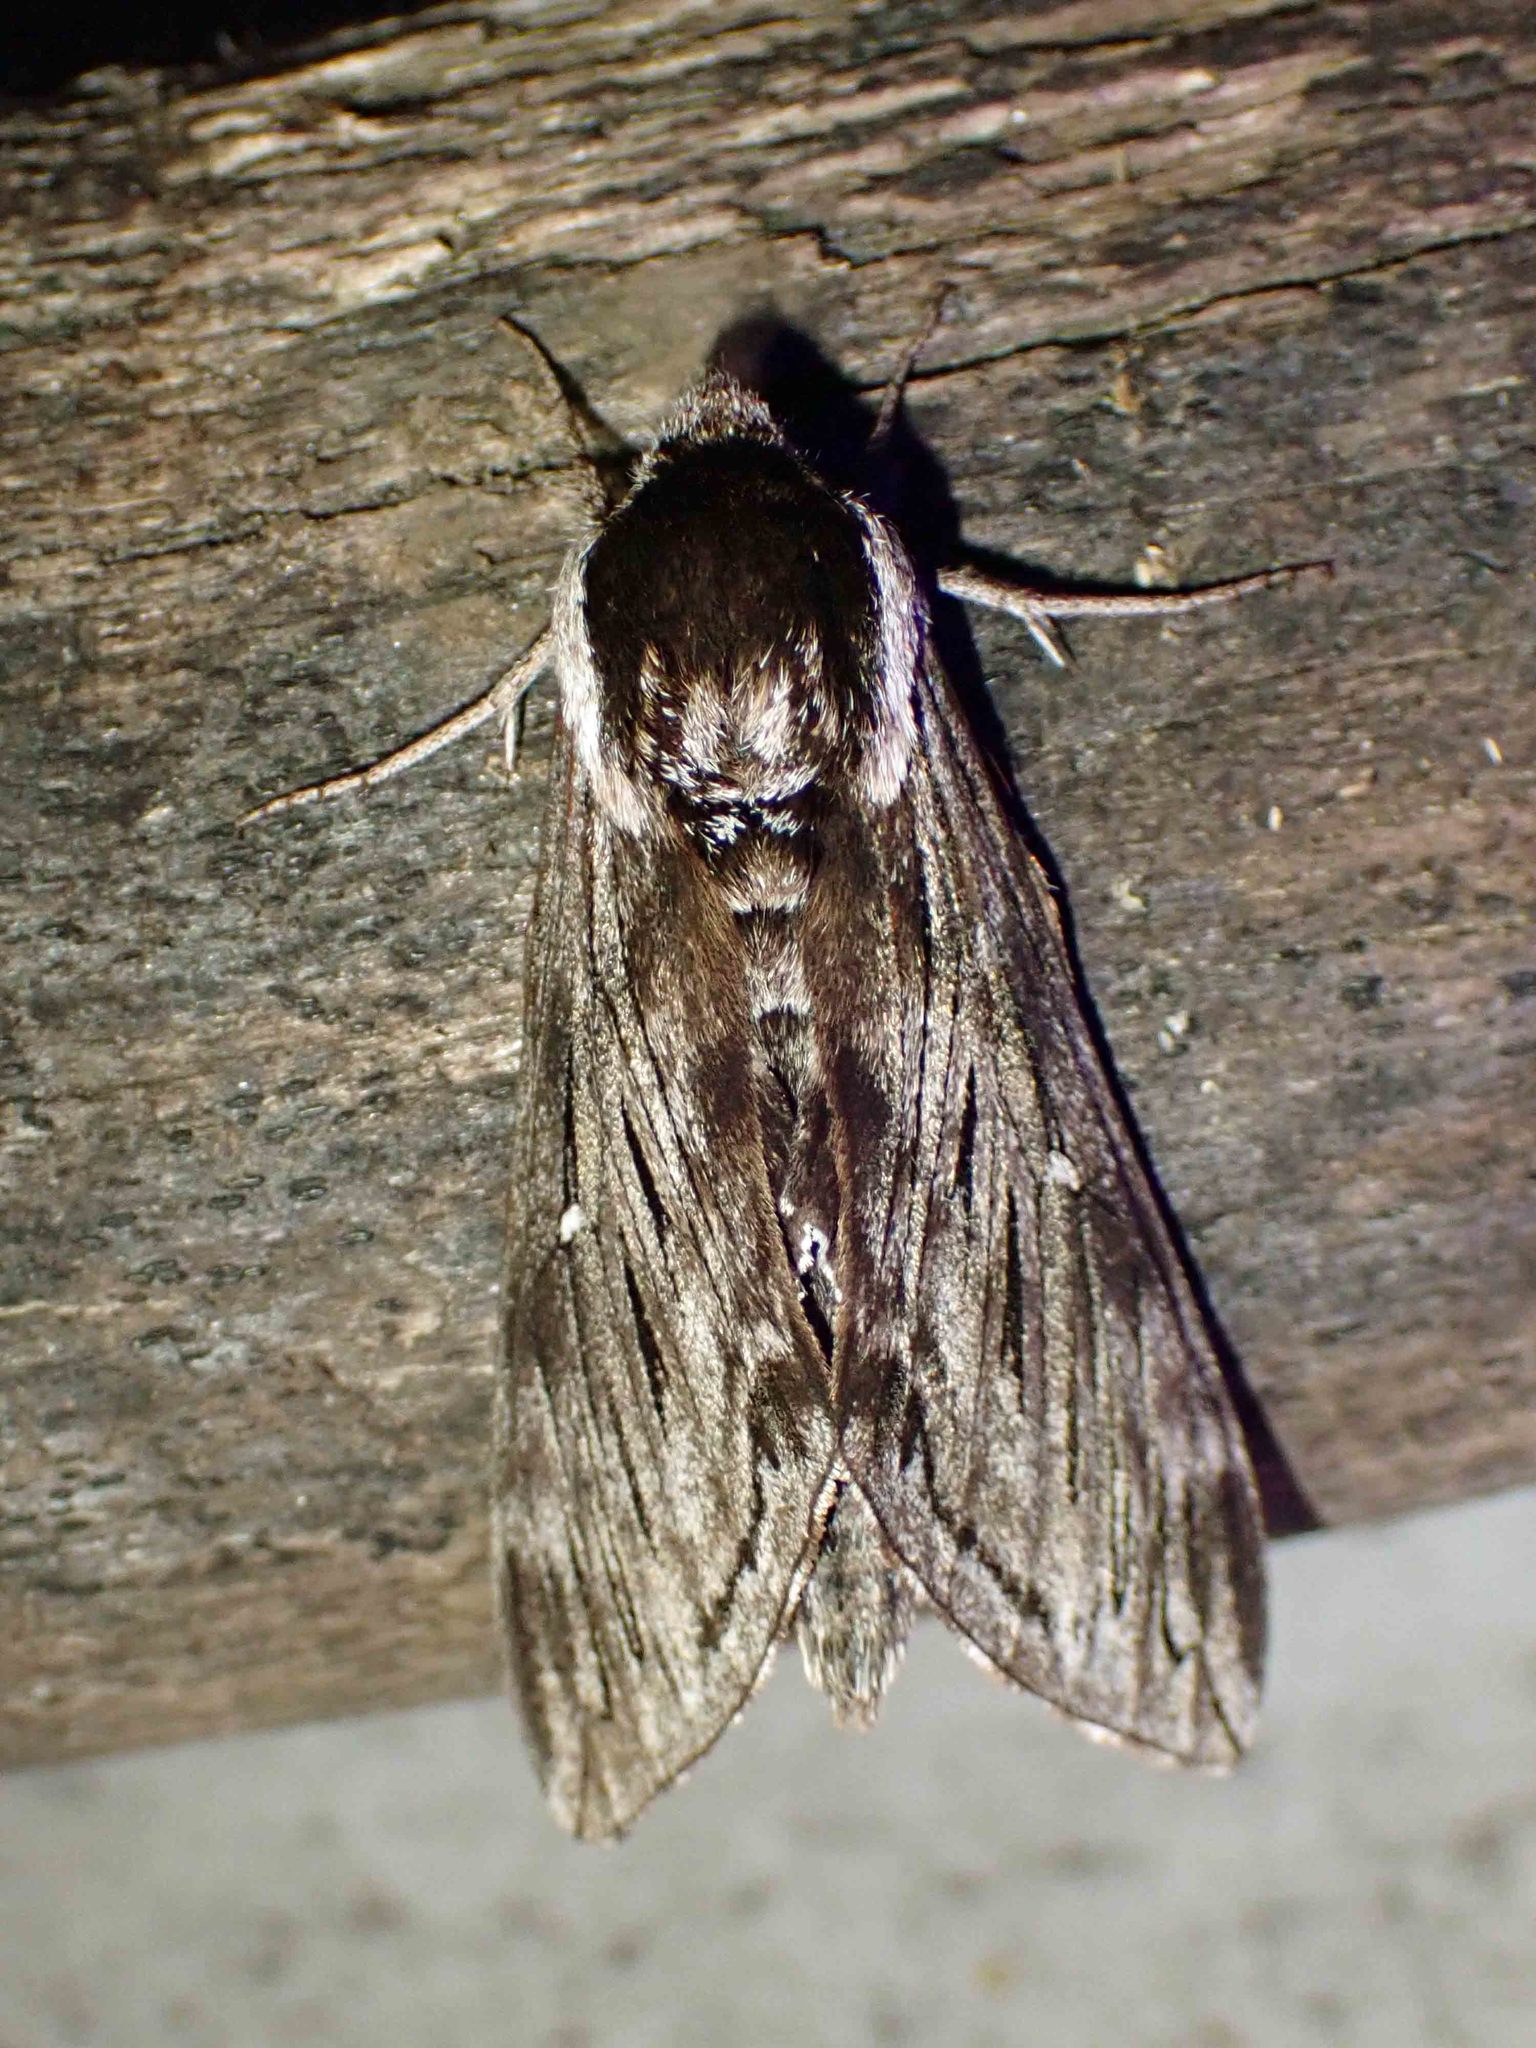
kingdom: Animalia
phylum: Arthropoda
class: Insecta
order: Lepidoptera
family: Sphingidae
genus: Sphinx
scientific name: Sphinx poecila
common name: Northern apple sphinx
